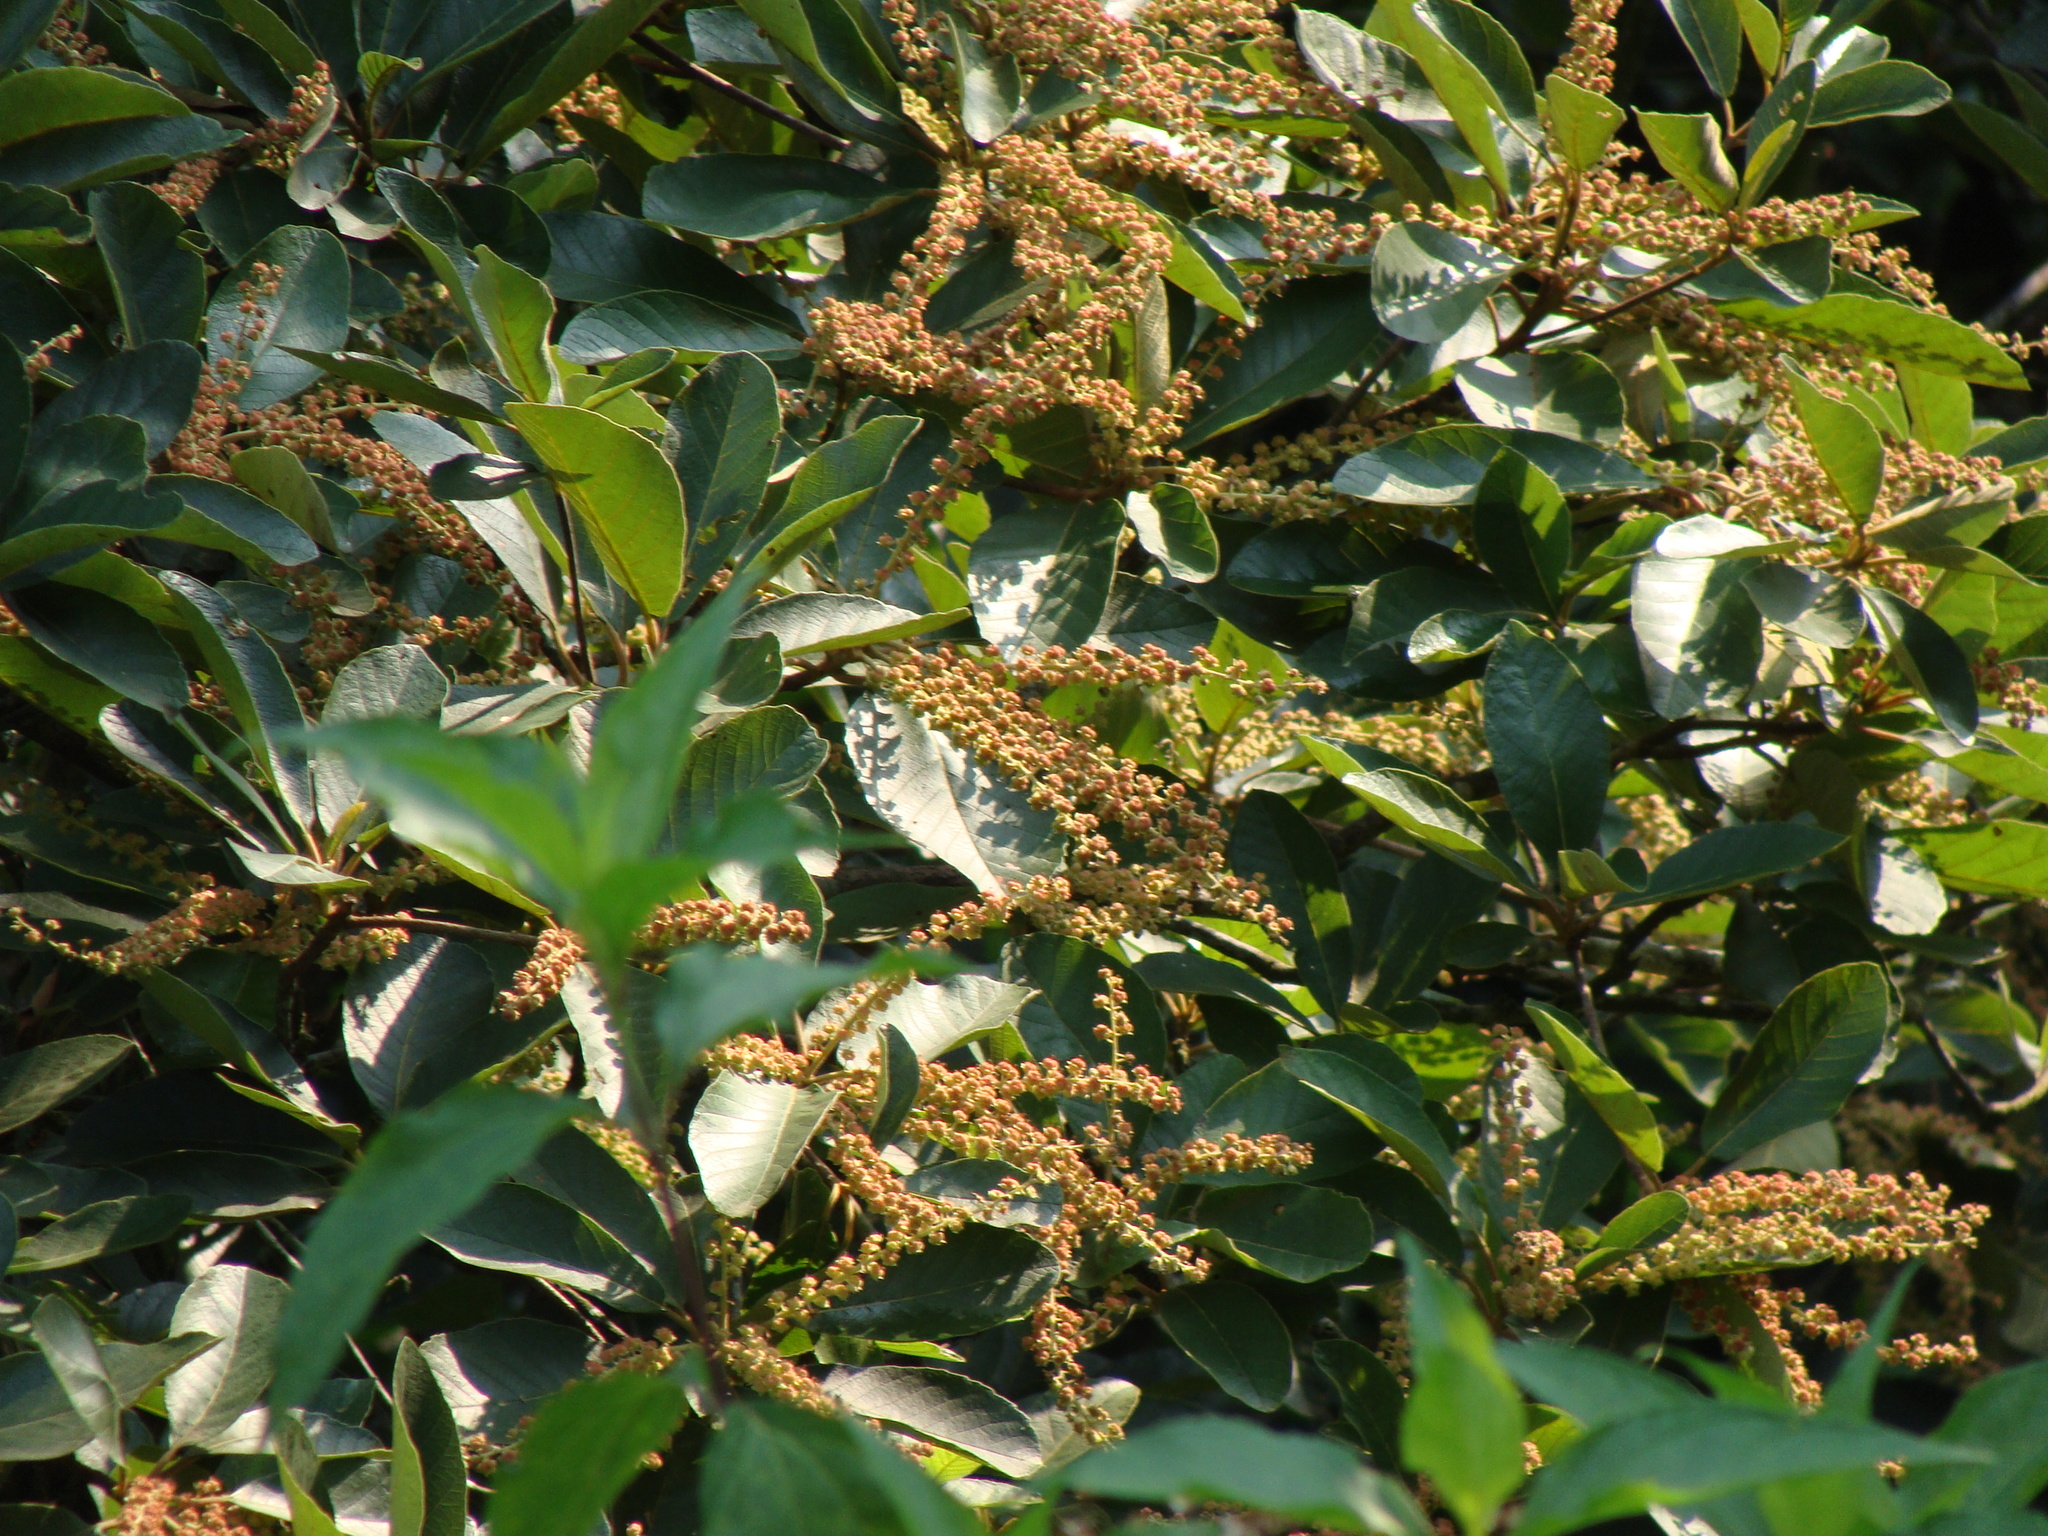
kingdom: Plantae
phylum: Tracheophyta
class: Magnoliopsida
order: Ericales
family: Clethraceae
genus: Clethra
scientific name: Clethra mexicana
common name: Nance macho
